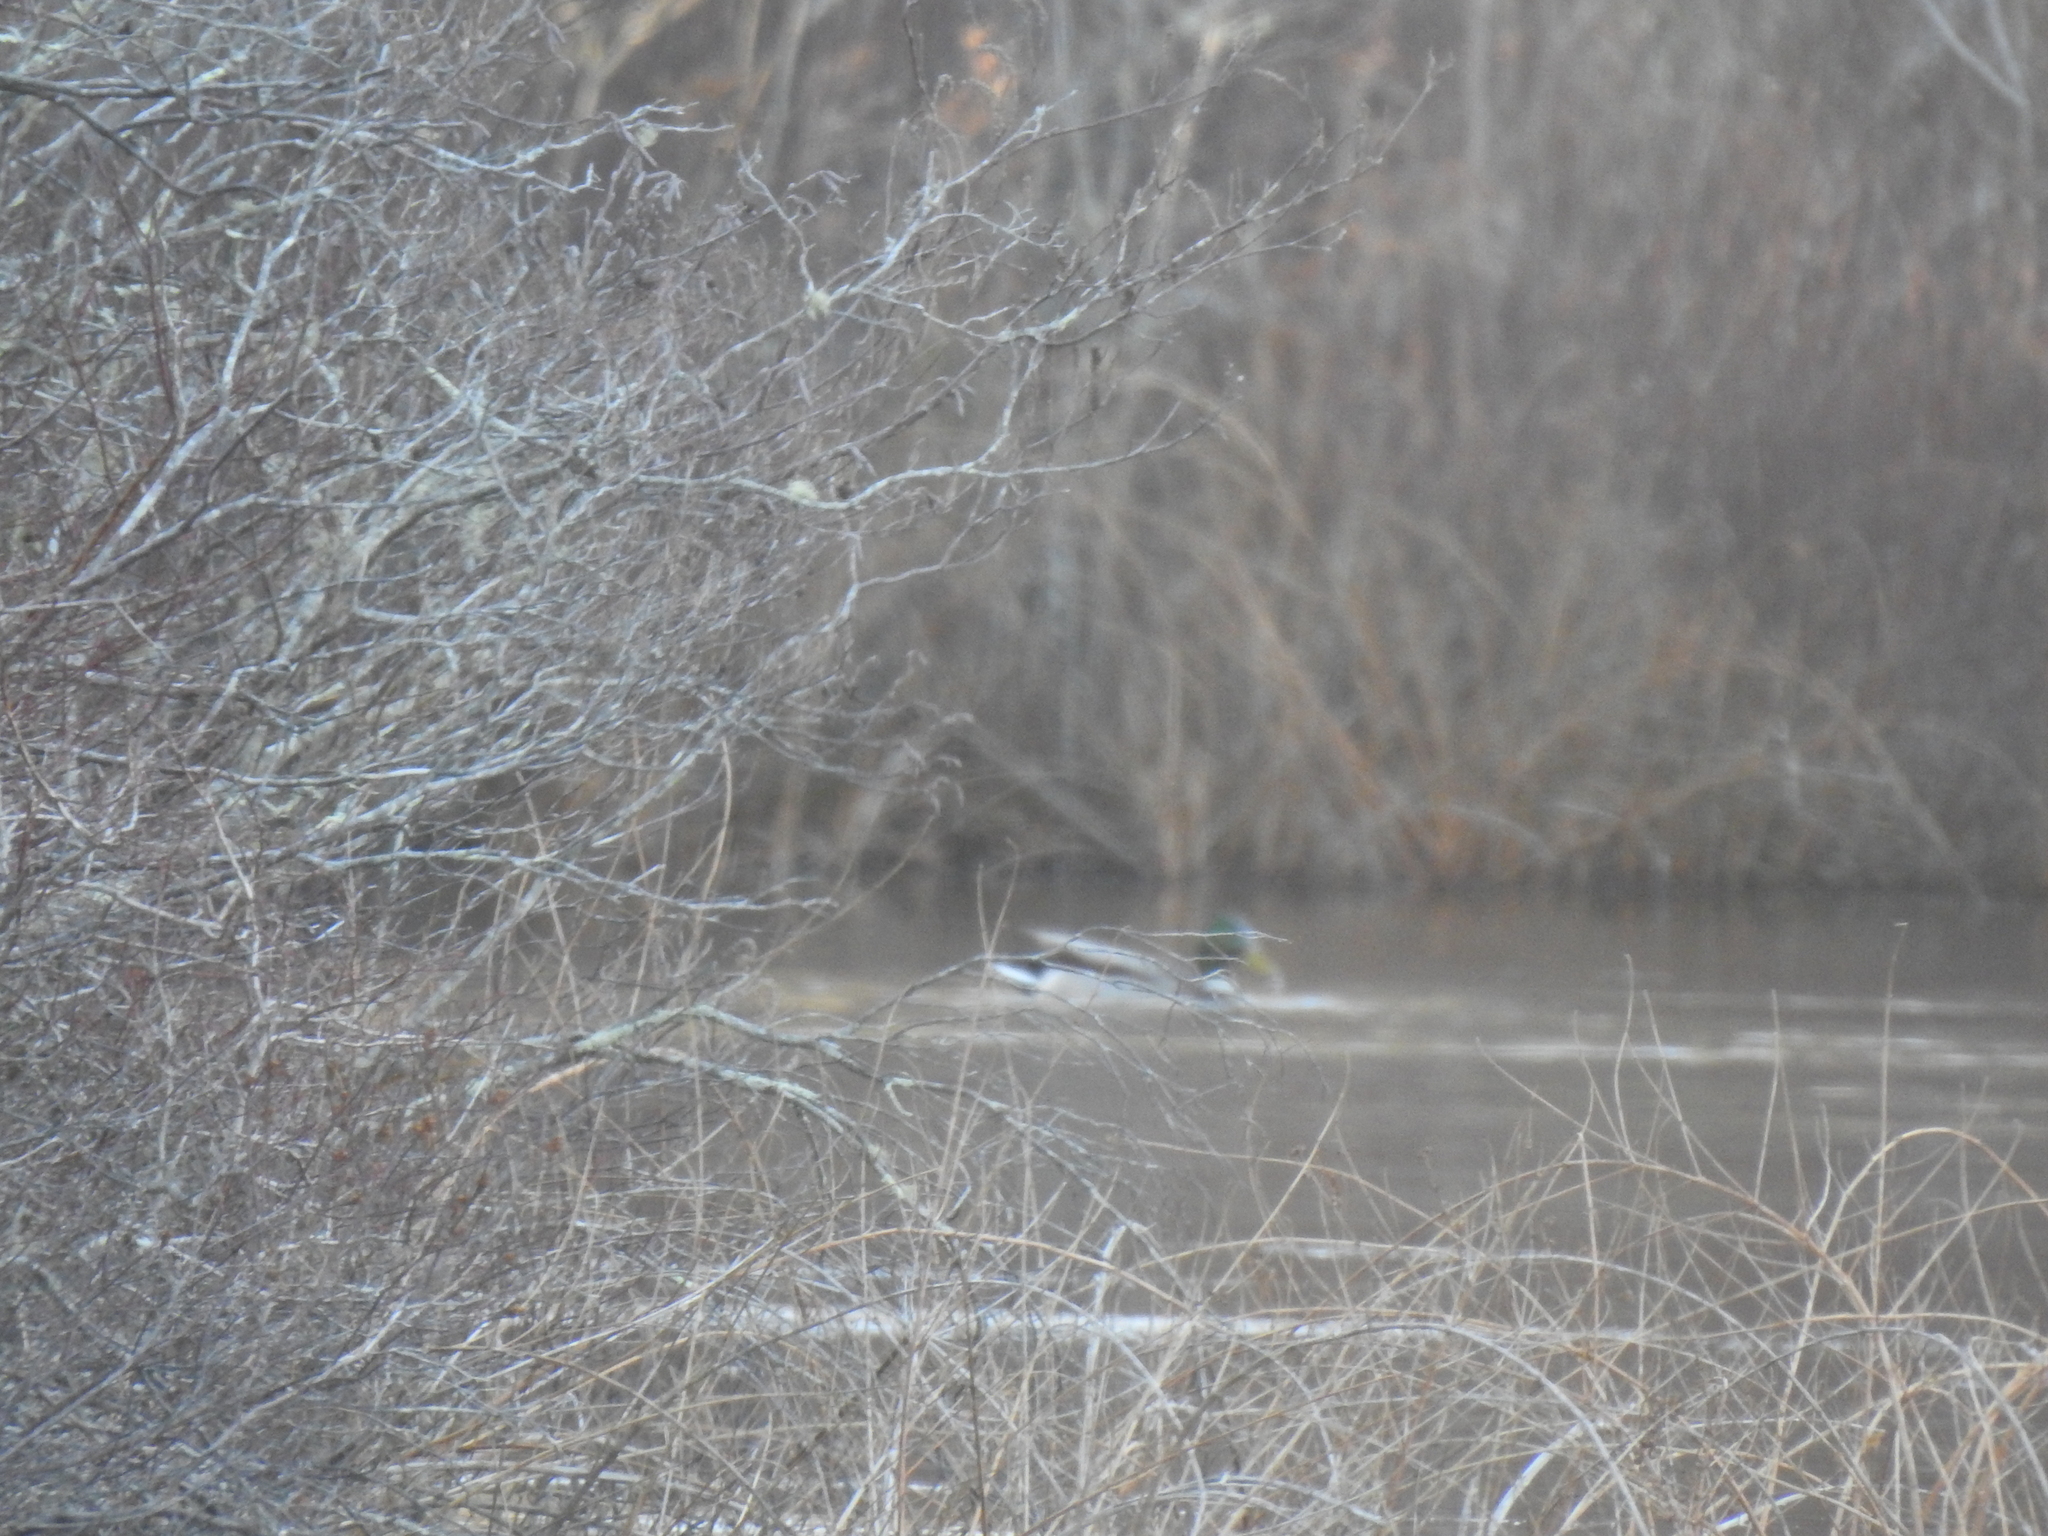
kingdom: Animalia
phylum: Chordata
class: Aves
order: Anseriformes
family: Anatidae
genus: Anas
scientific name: Anas platyrhynchos
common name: Mallard
